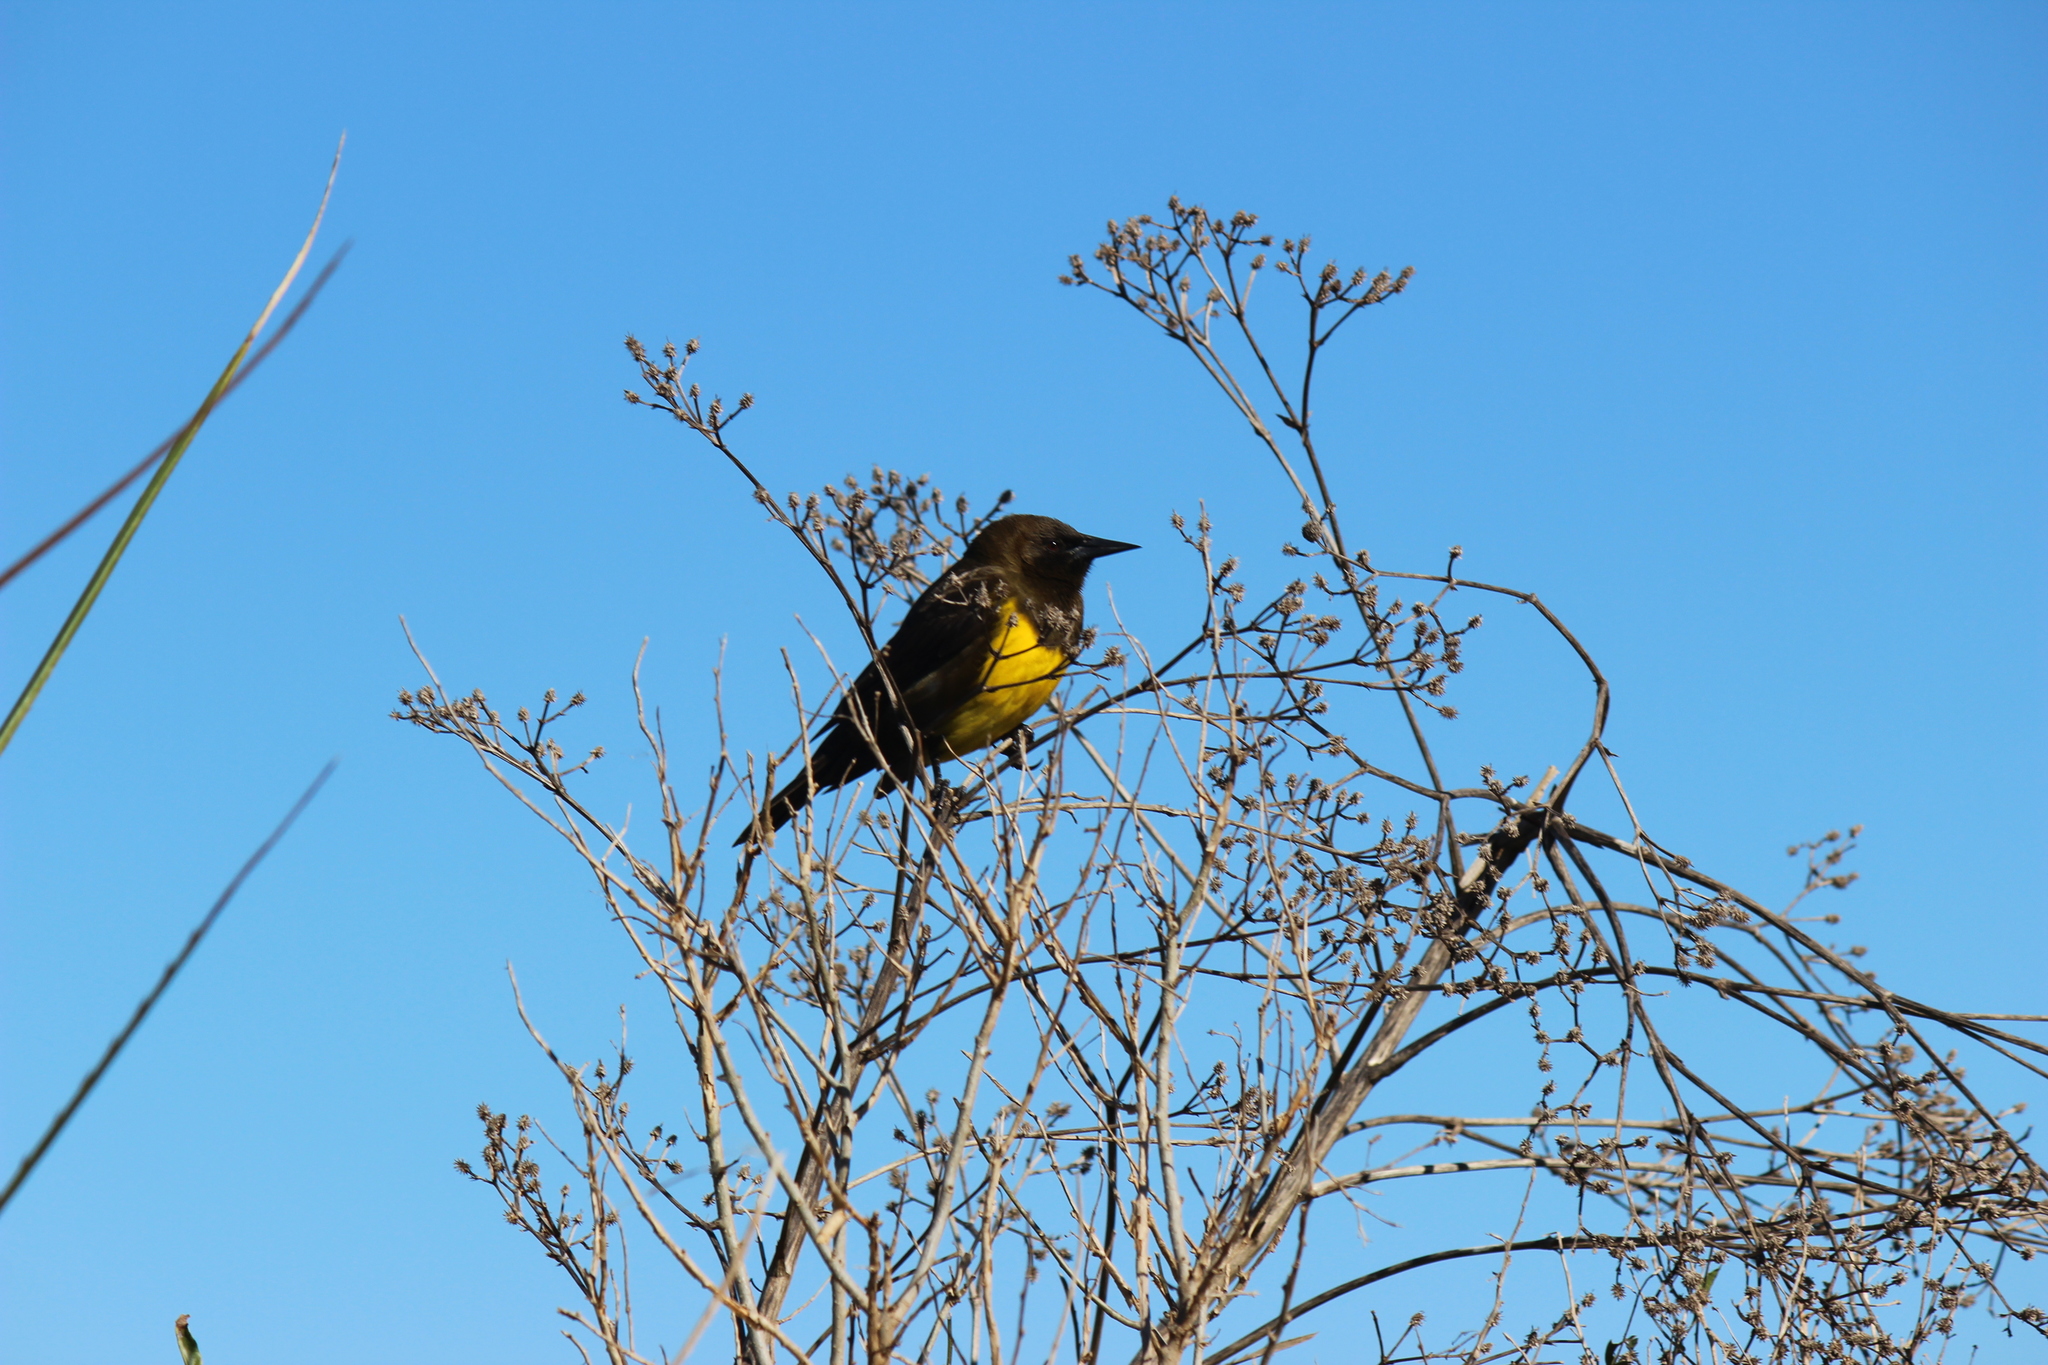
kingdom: Animalia
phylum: Chordata
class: Aves
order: Passeriformes
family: Icteridae
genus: Pseudoleistes
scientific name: Pseudoleistes virescens
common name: Brown-and-yellow marshbird
